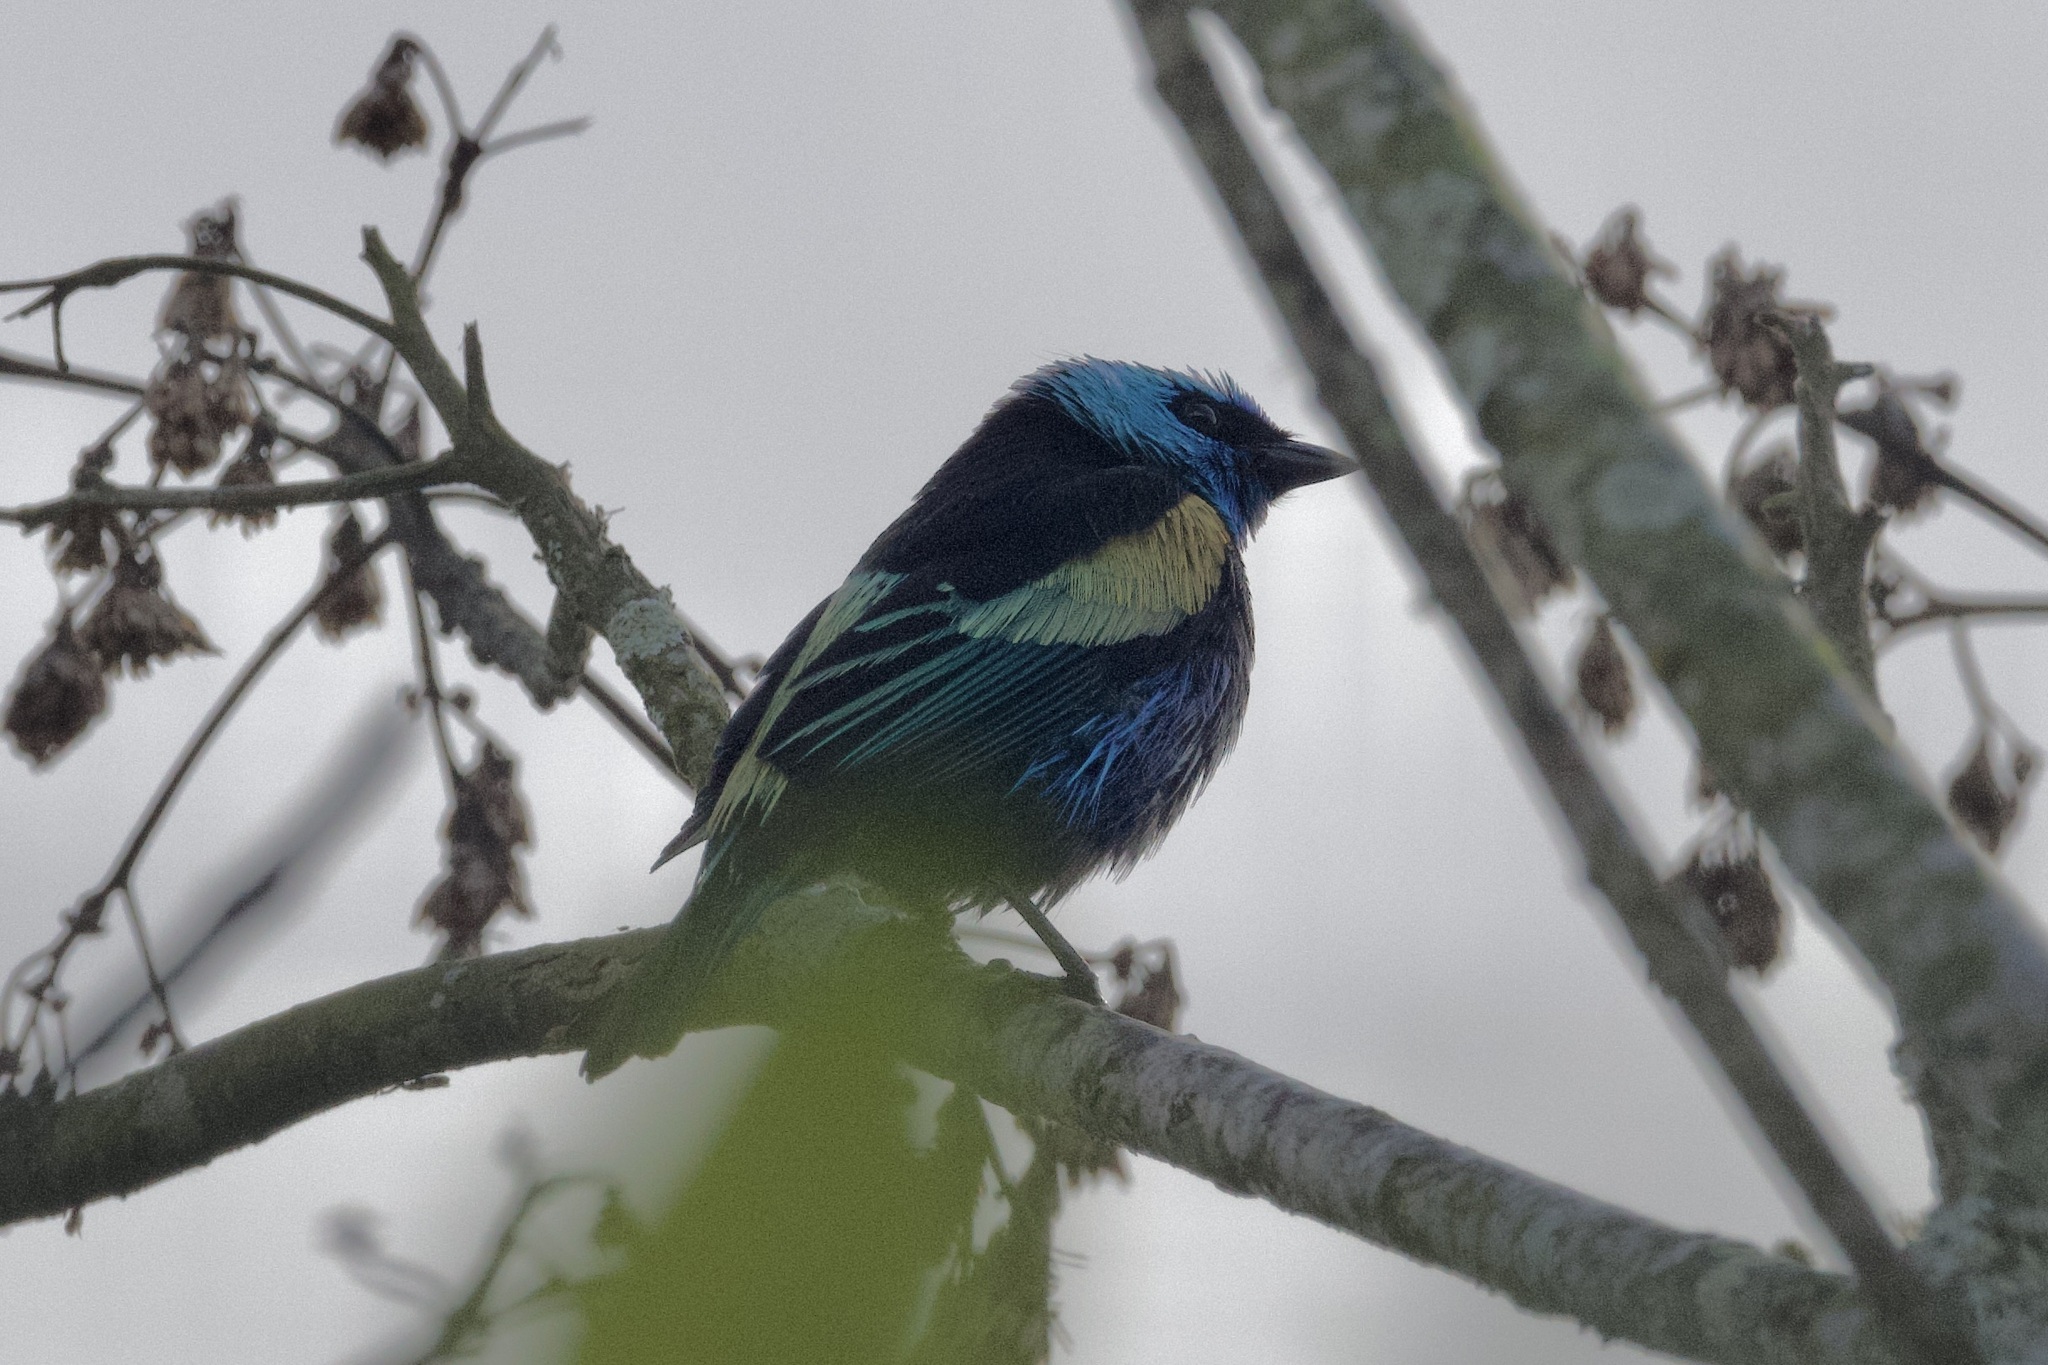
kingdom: Animalia
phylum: Chordata
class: Aves
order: Passeriformes
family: Thraupidae
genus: Stilpnia
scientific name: Stilpnia cyanicollis
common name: Blue-necked tanager
